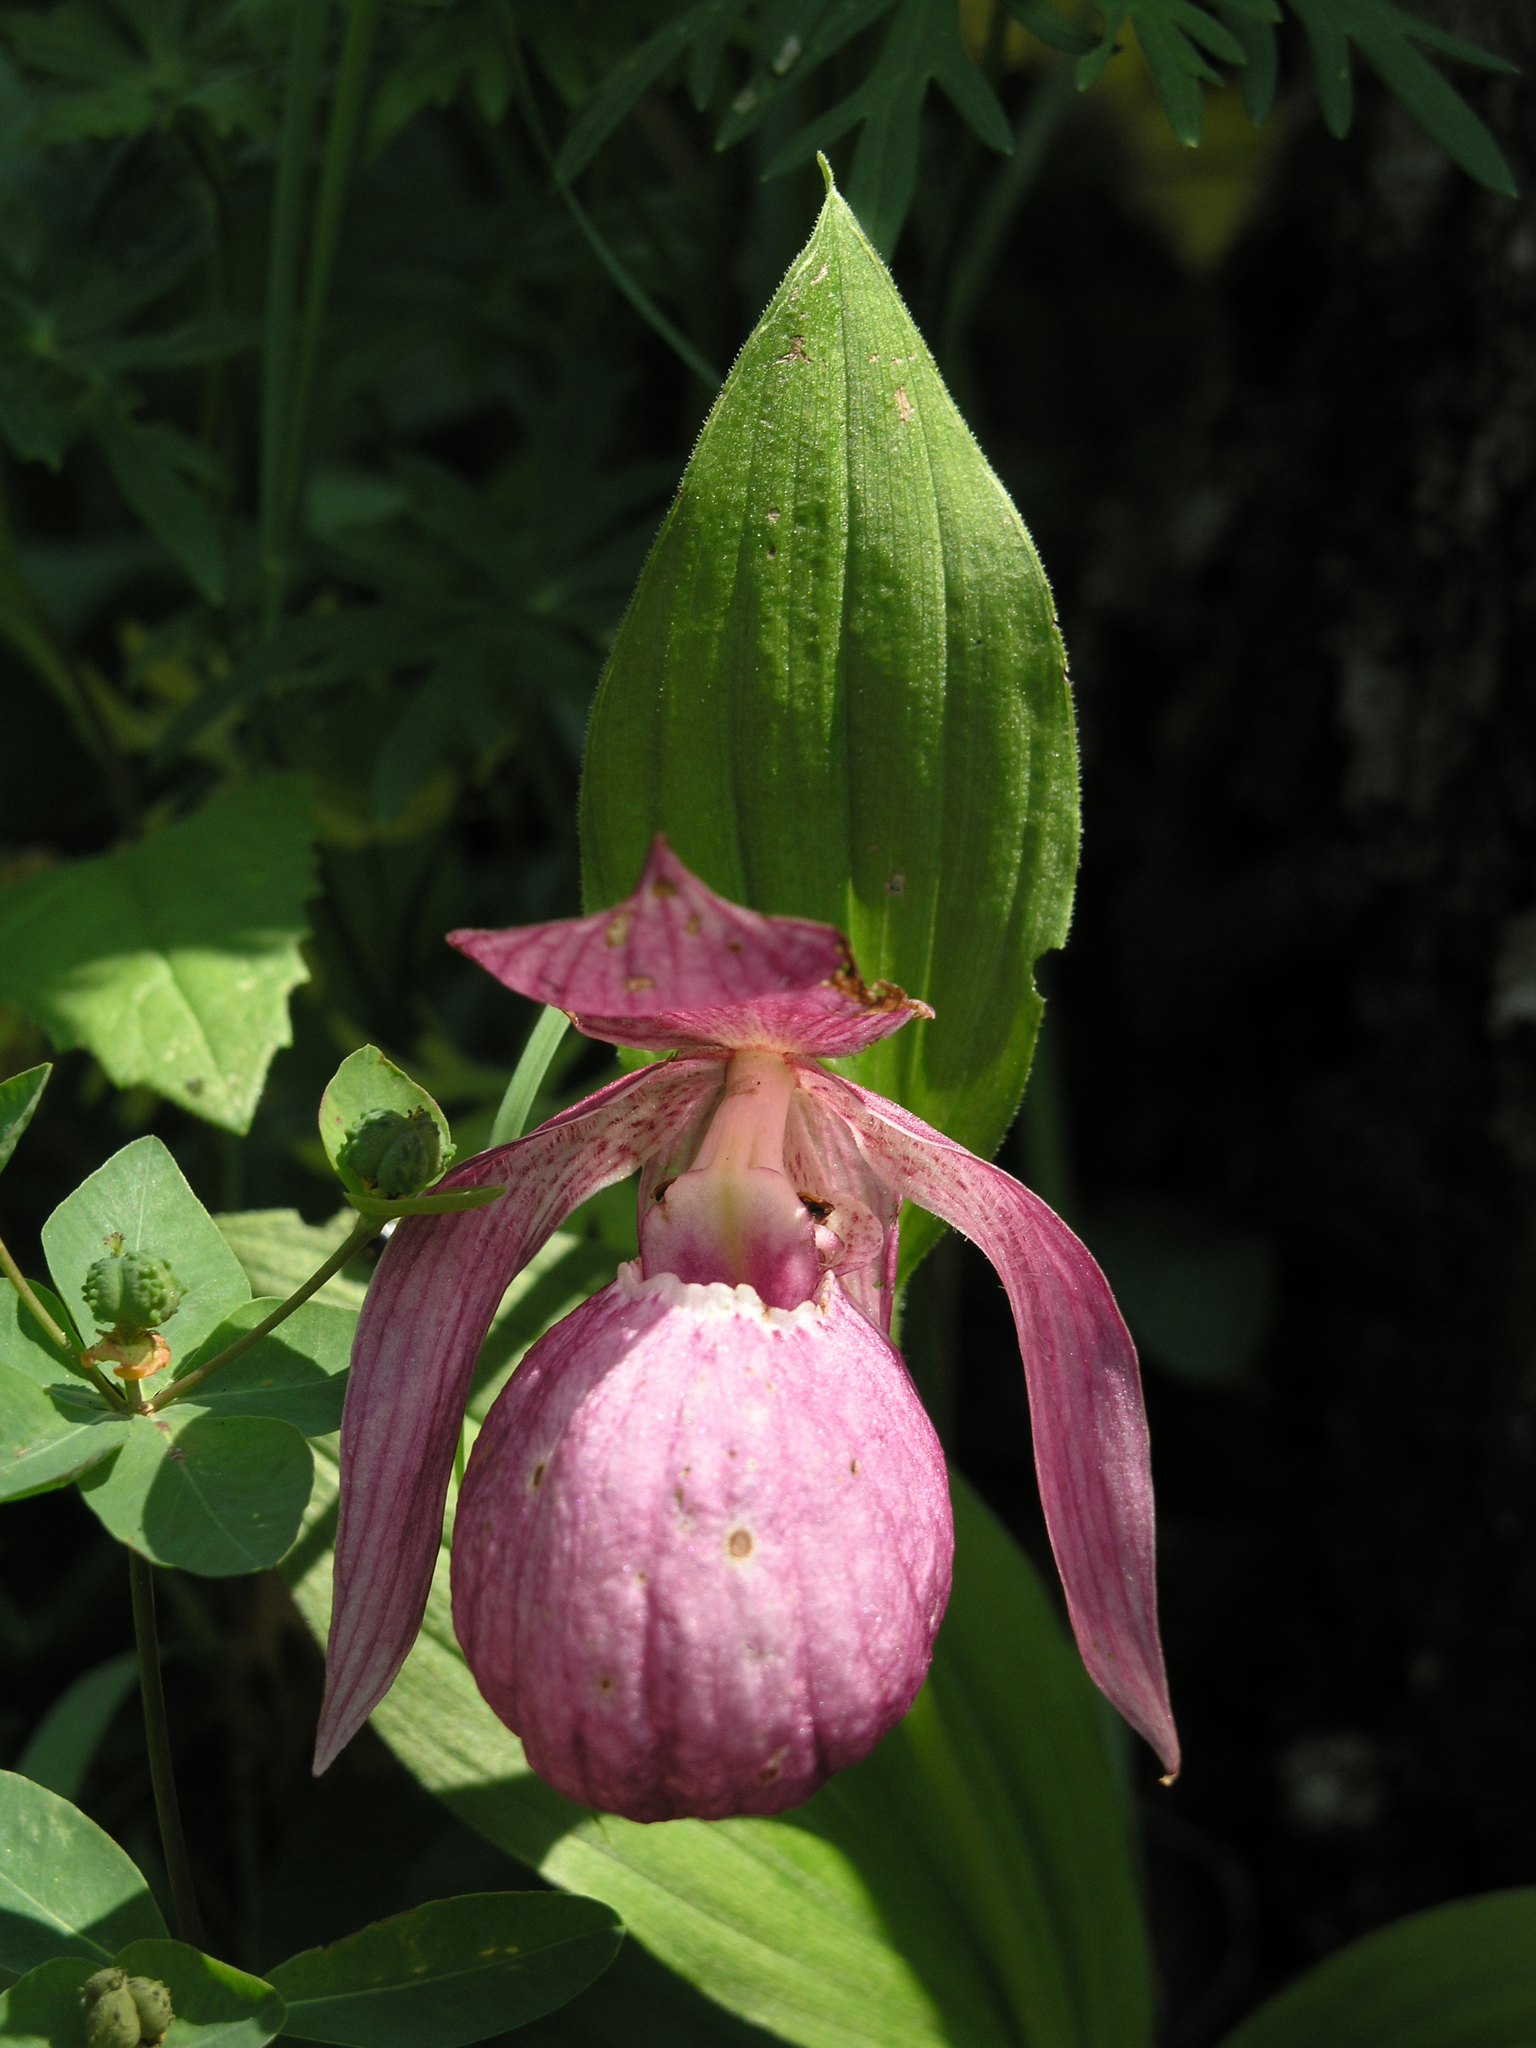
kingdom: Plantae
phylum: Tracheophyta
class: Liliopsida
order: Asparagales
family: Orchidaceae
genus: Cypripedium
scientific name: Cypripedium macranthos
